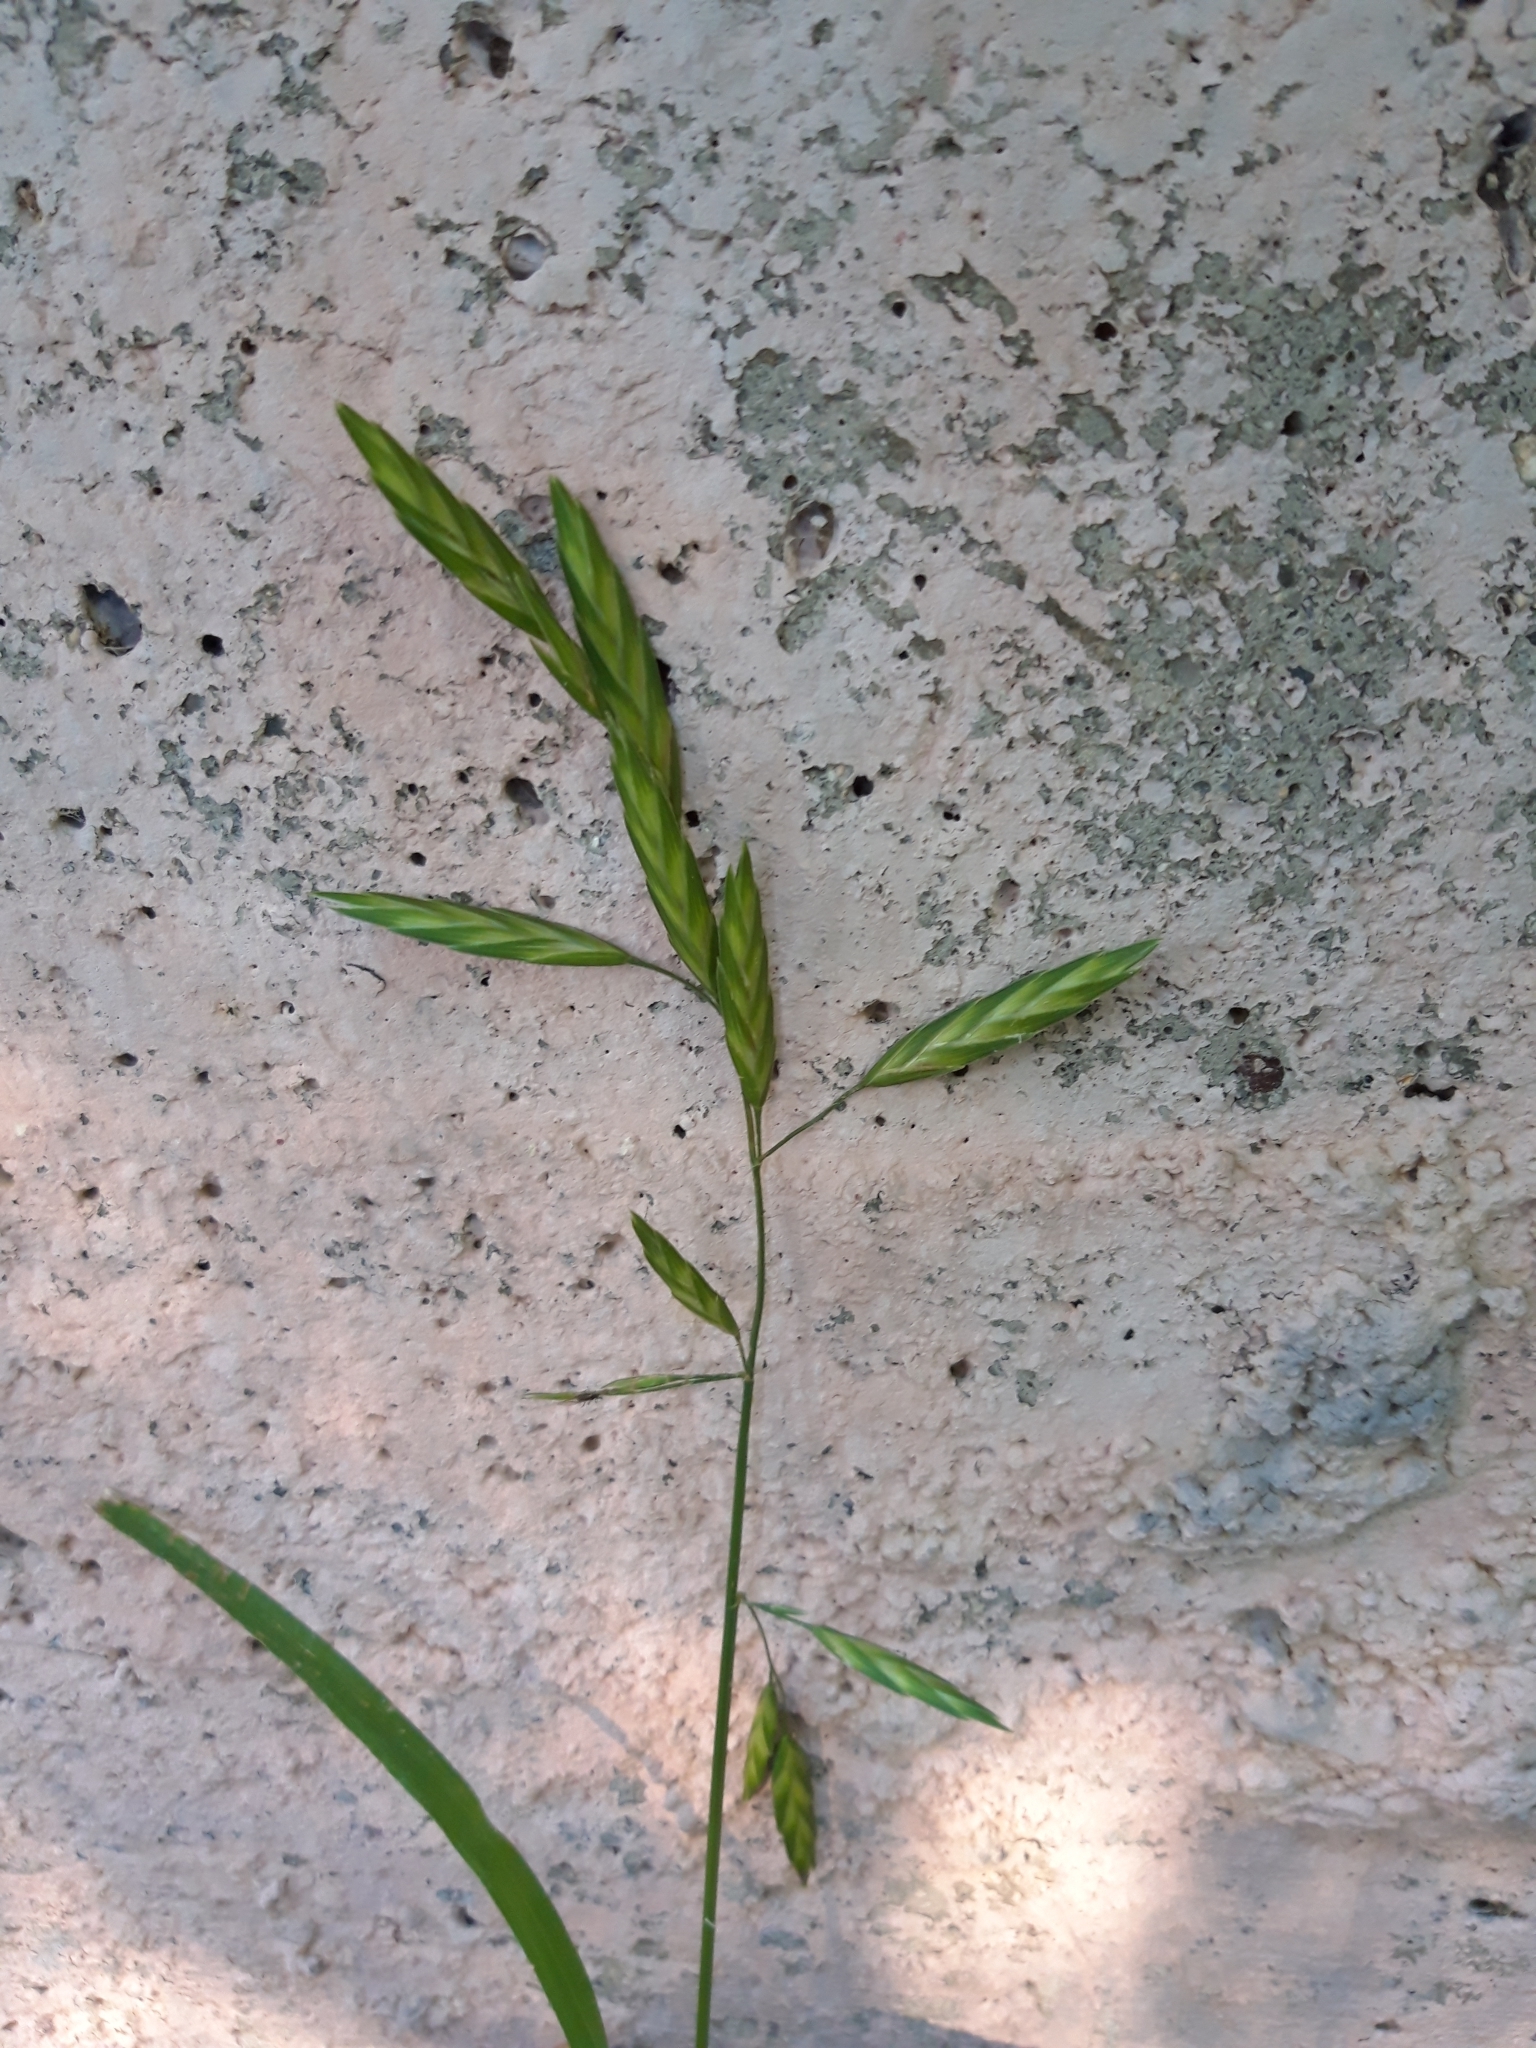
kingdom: Plantae
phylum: Tracheophyta
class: Liliopsida
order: Poales
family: Poaceae
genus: Bromus
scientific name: Bromus catharticus
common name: Rescuegrass
